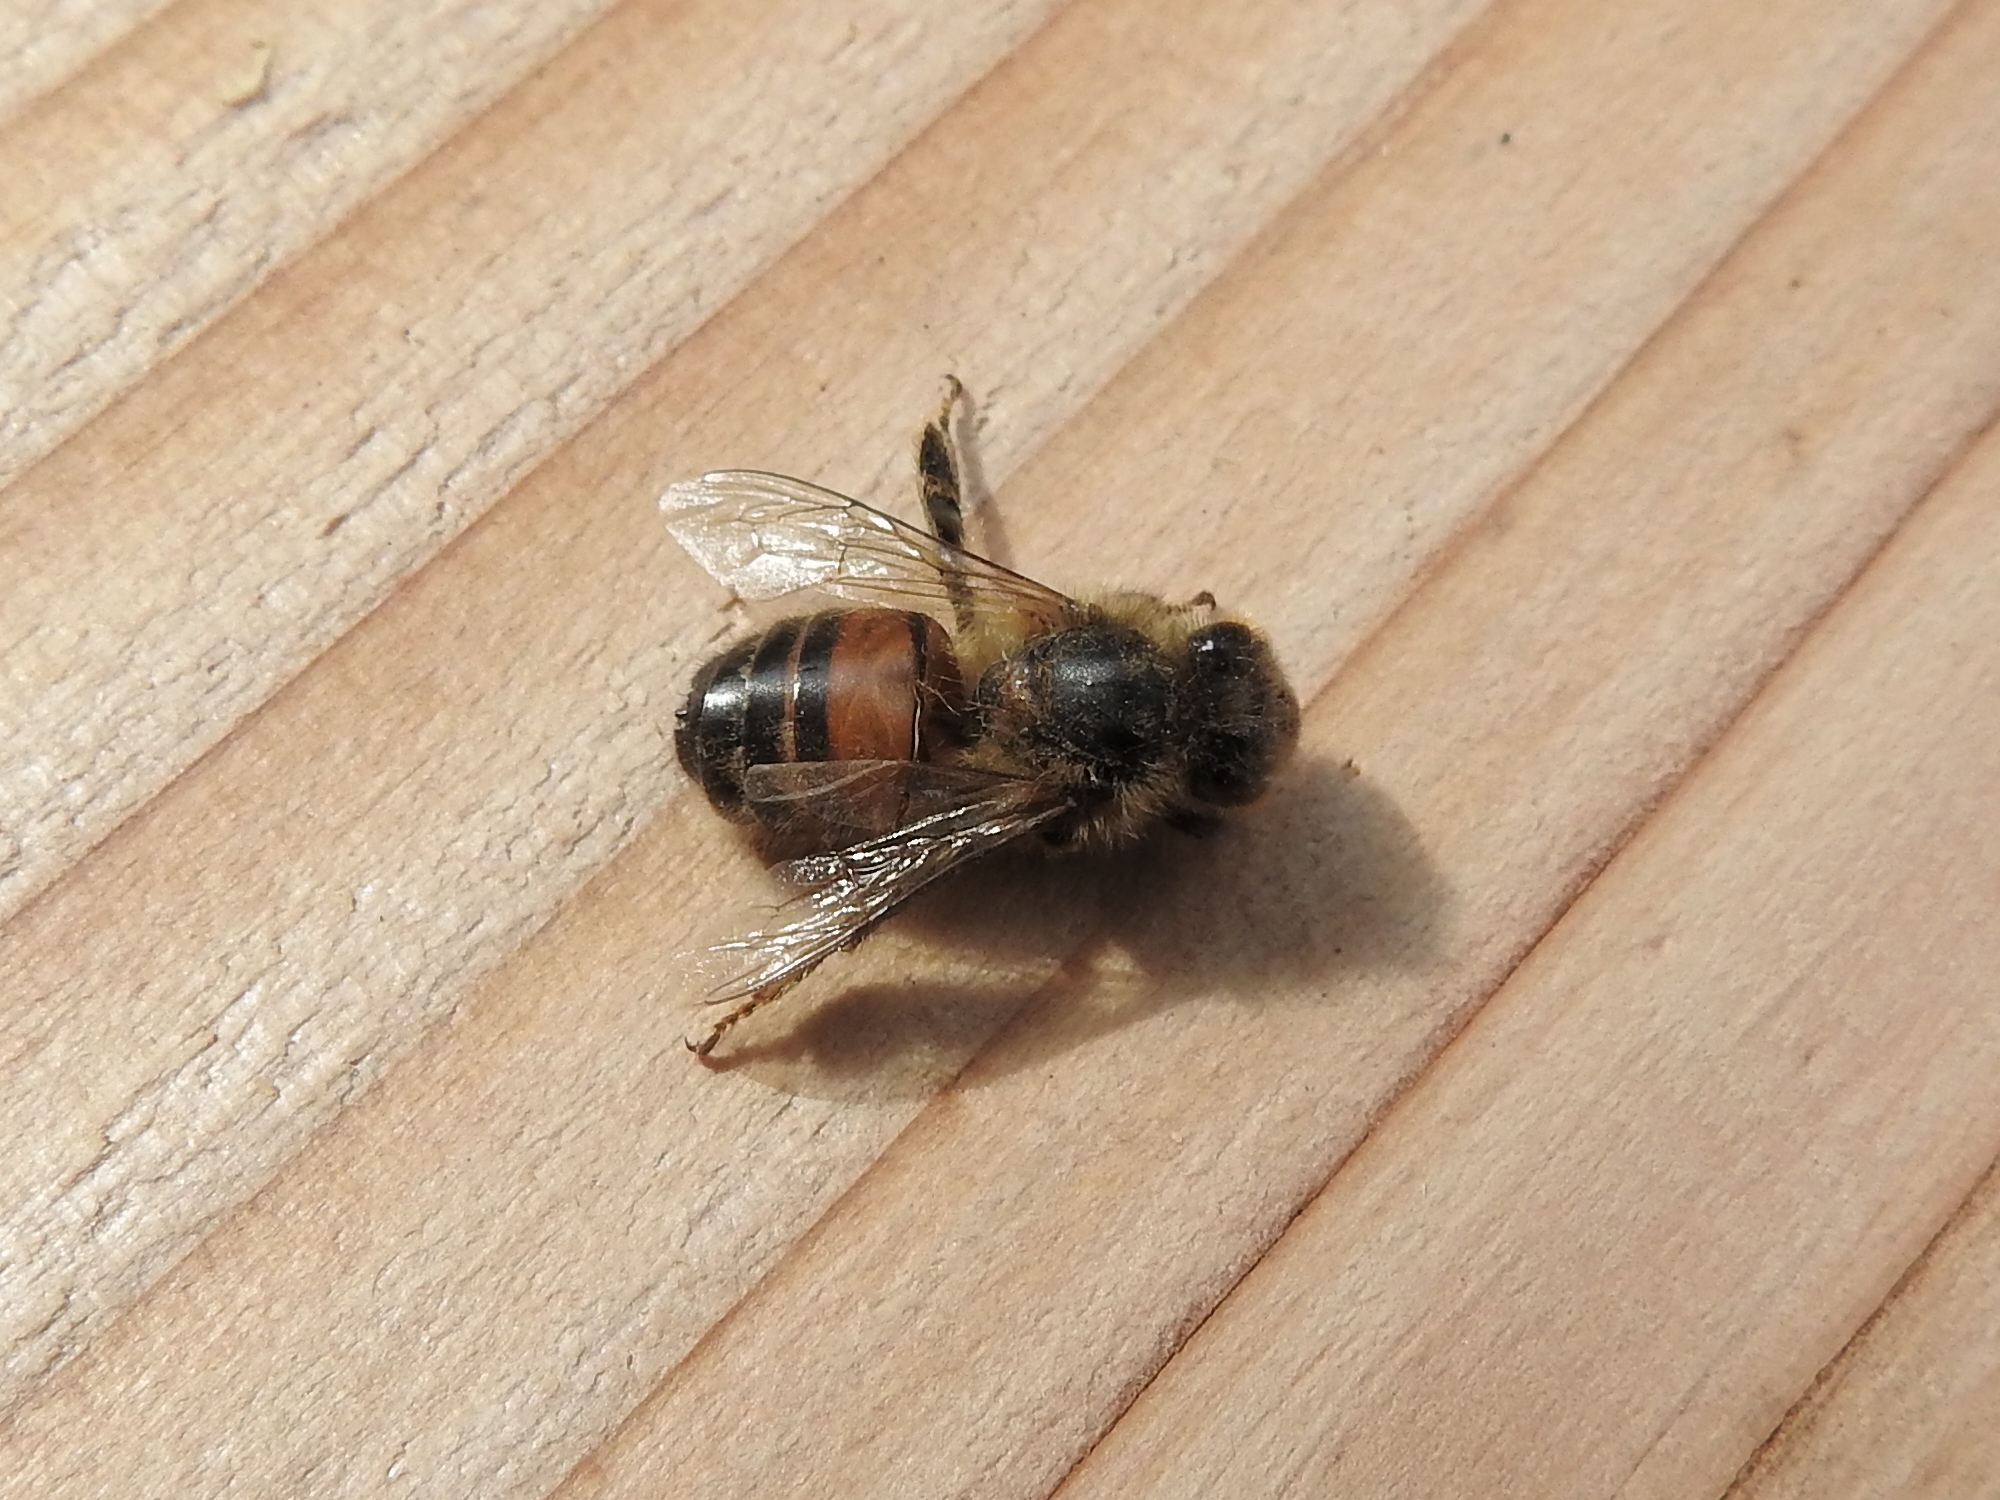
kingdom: Animalia
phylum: Arthropoda
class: Insecta
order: Hymenoptera
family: Apidae
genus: Apis
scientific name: Apis mellifera
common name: Honey bee
